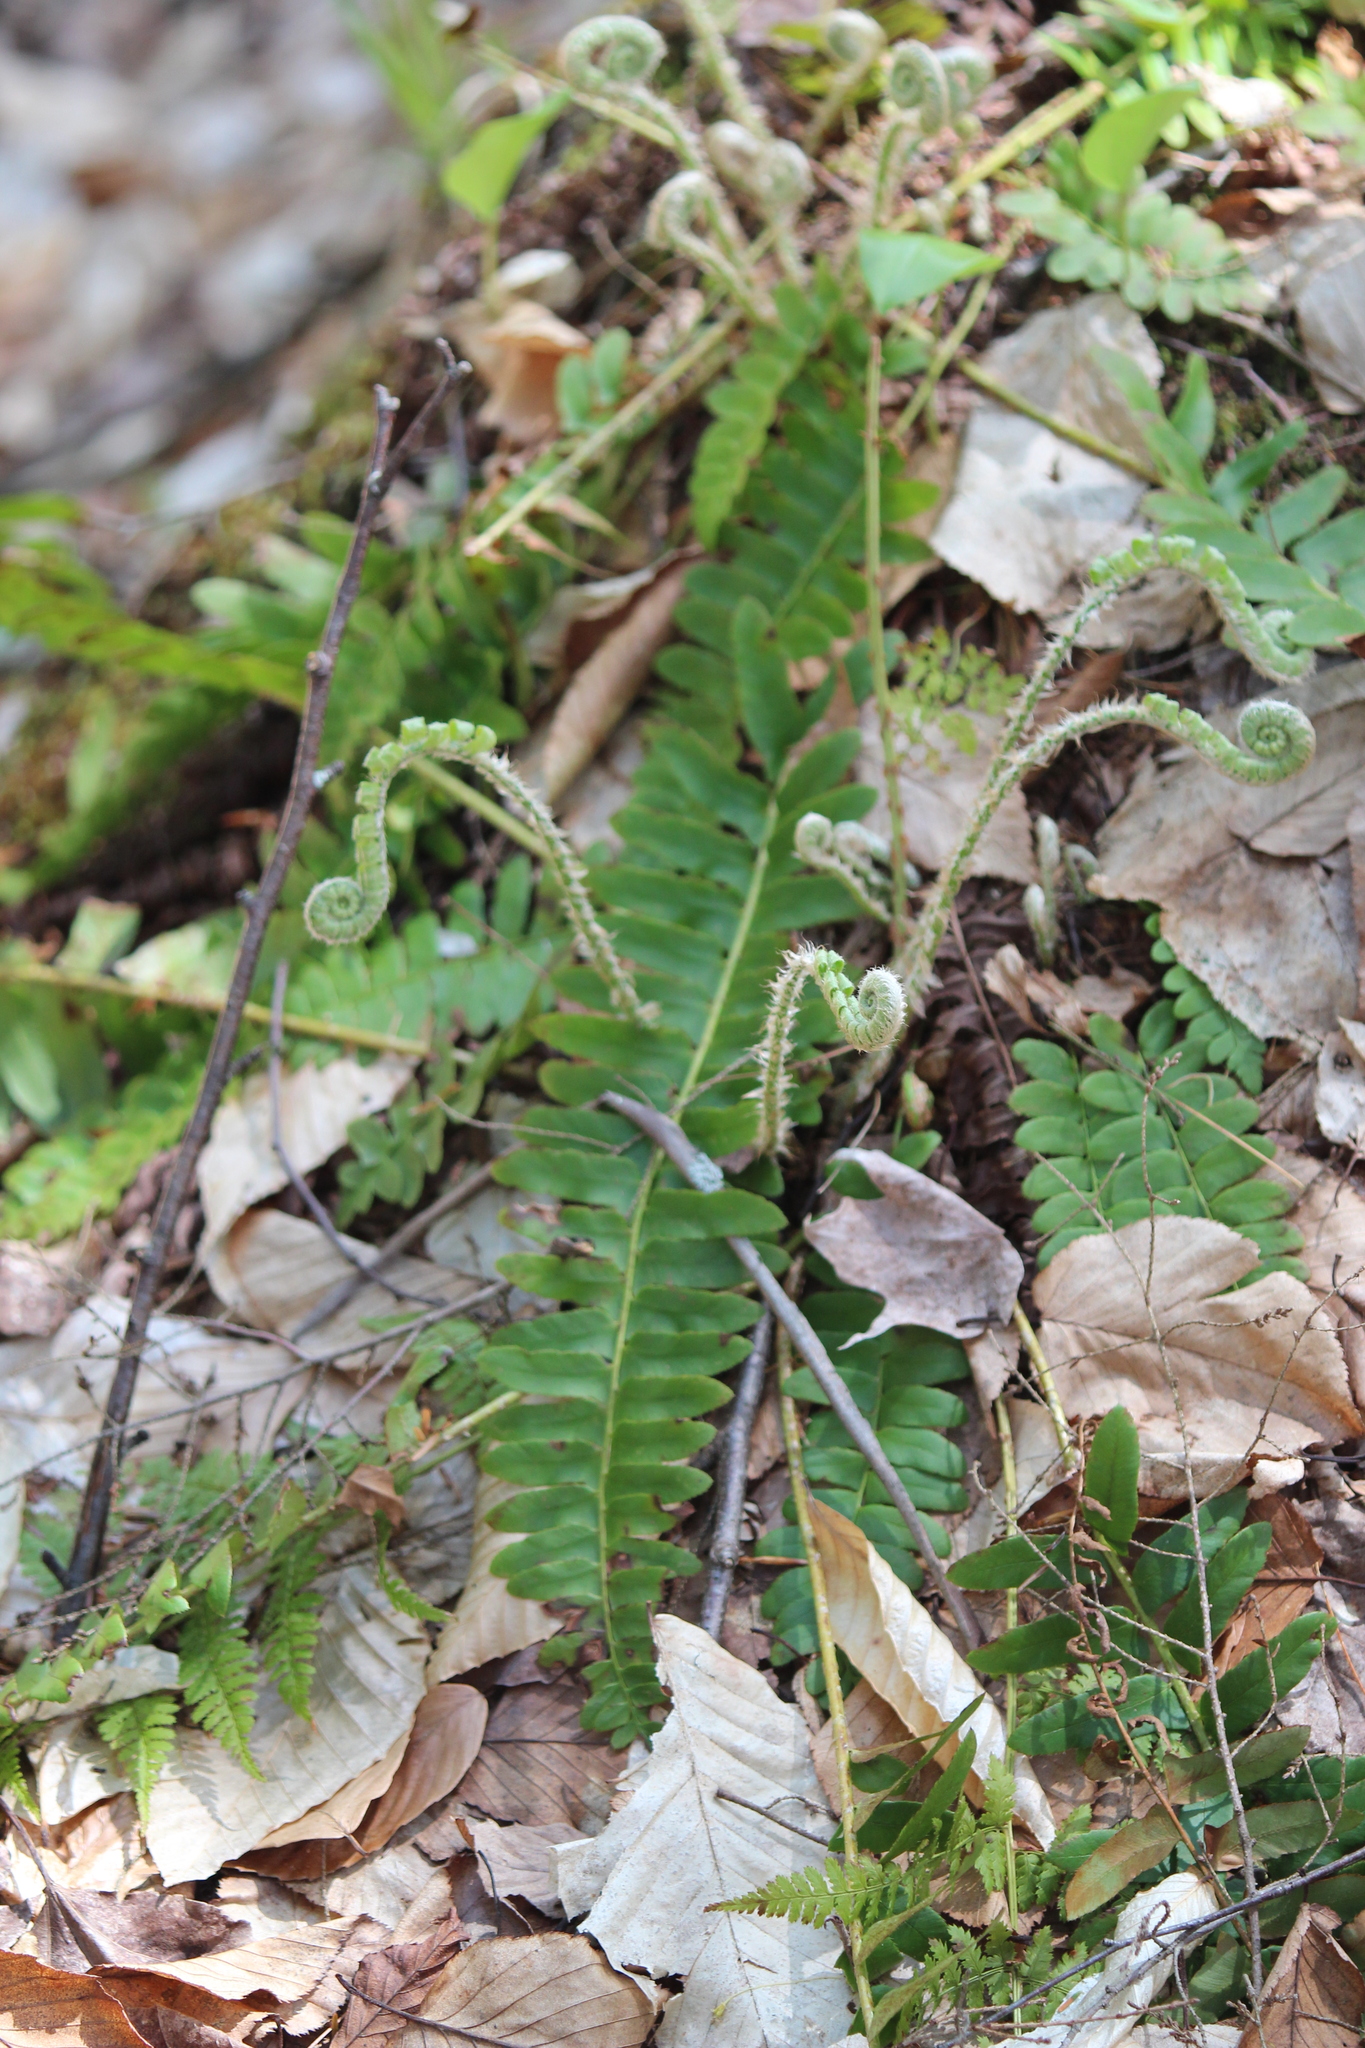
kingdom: Plantae
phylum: Tracheophyta
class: Polypodiopsida
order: Polypodiales
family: Dryopteridaceae
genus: Polystichum
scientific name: Polystichum acrostichoides
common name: Christmas fern
